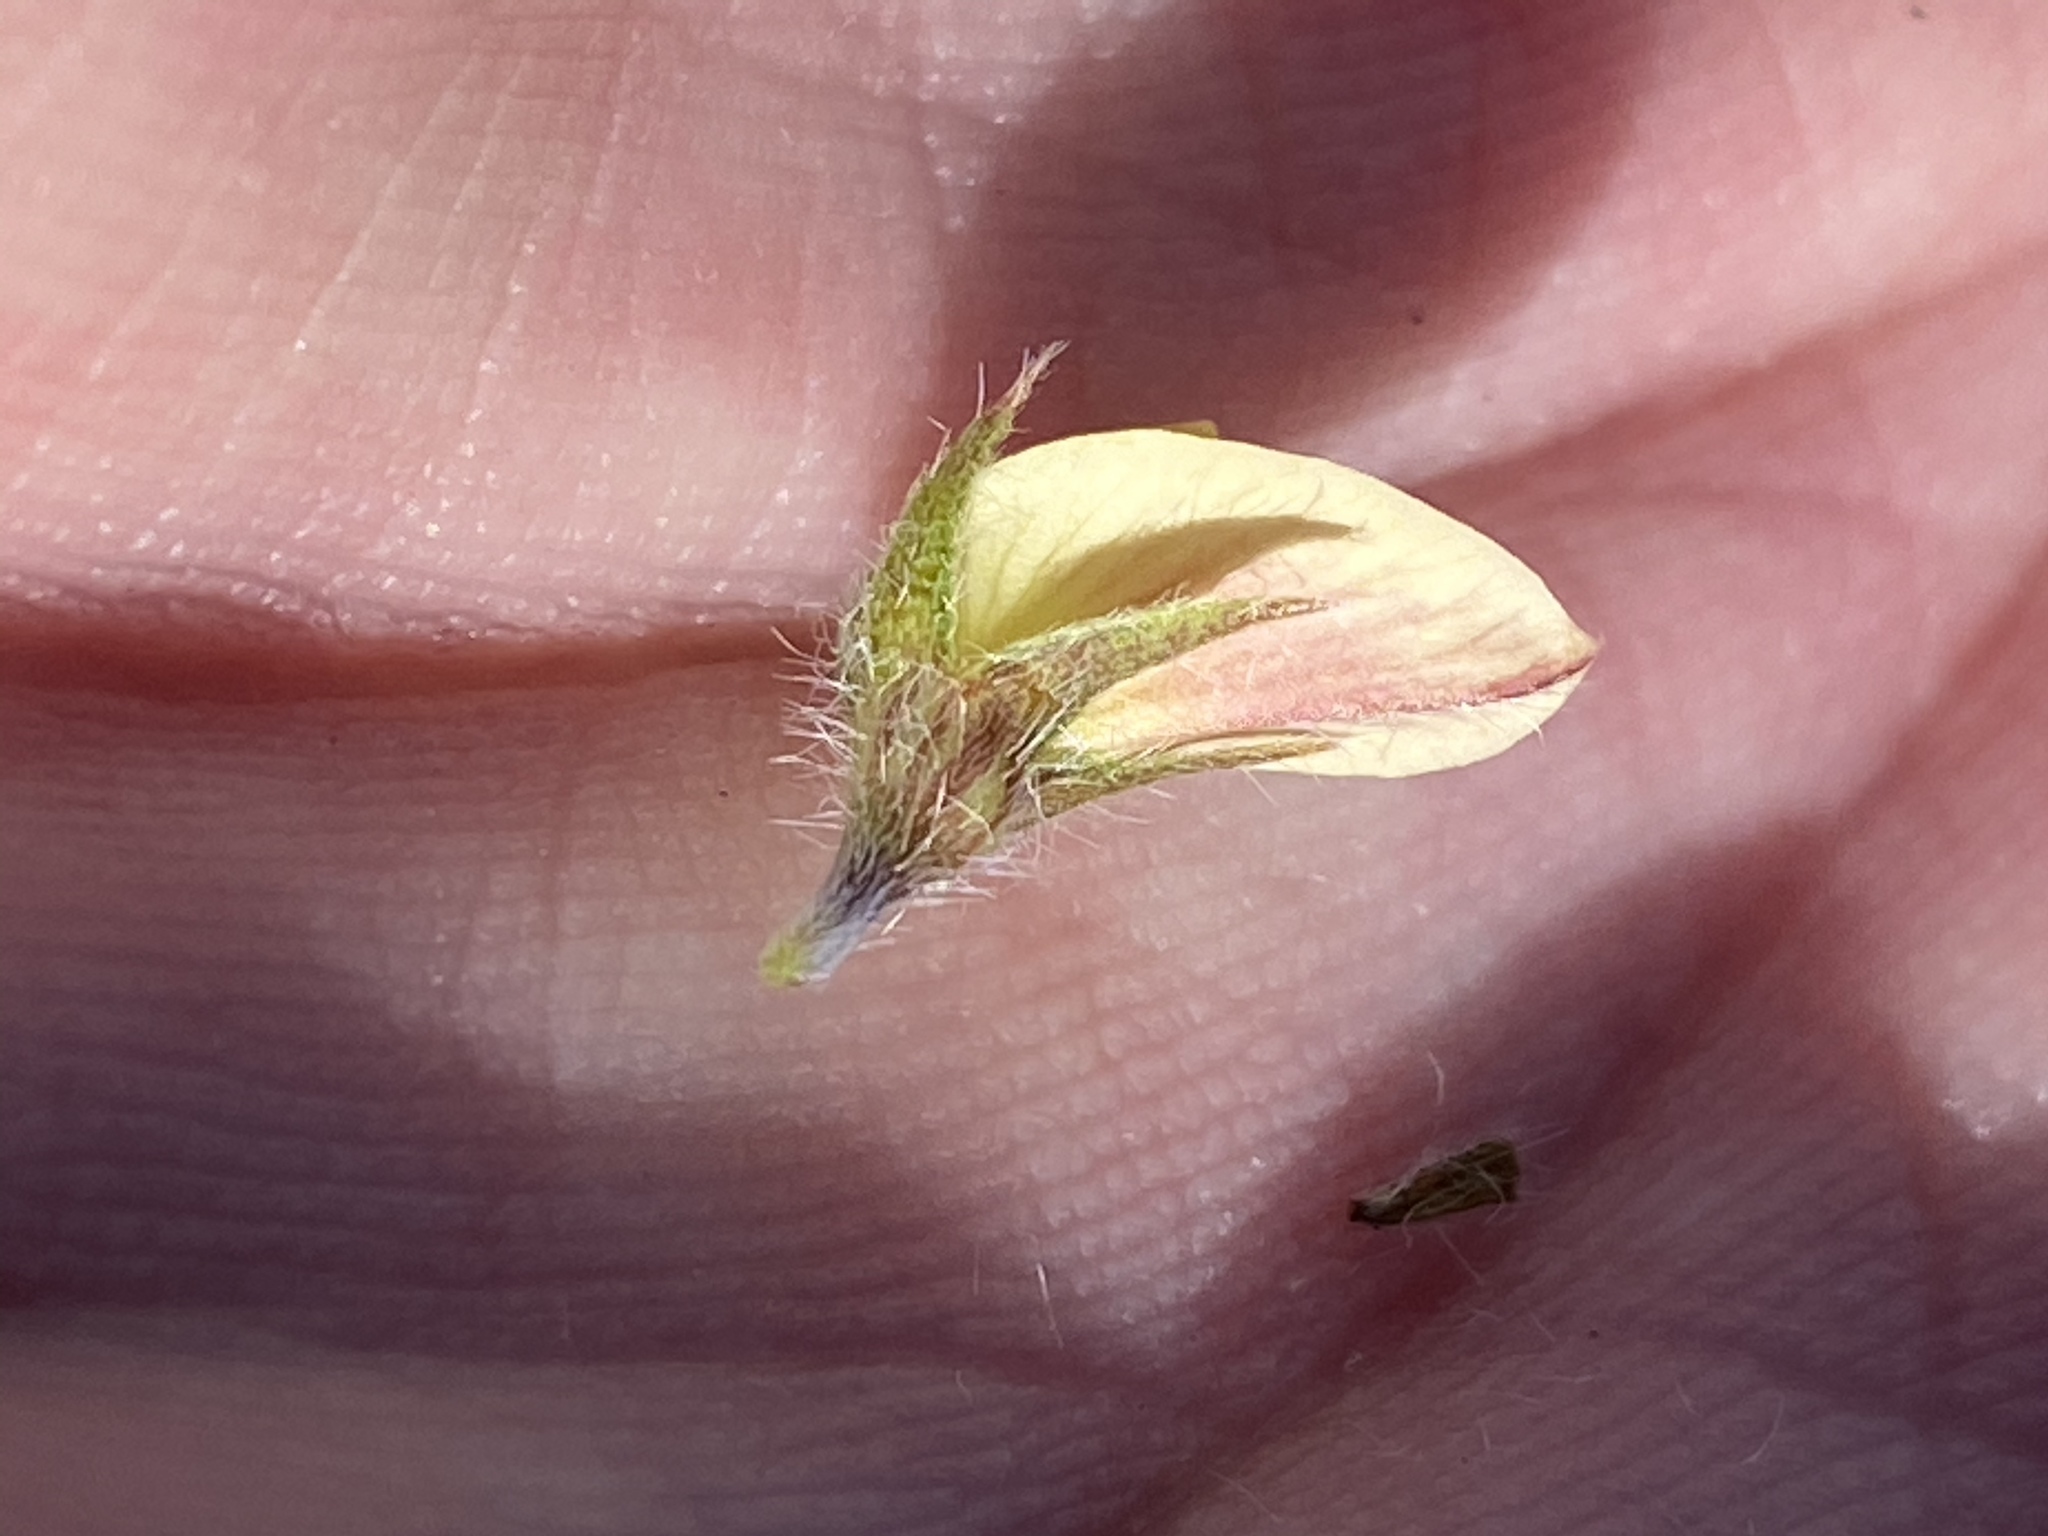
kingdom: Plantae
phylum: Tracheophyta
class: Magnoliopsida
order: Fabales
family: Fabaceae
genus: Lotononis
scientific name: Lotononis pungens
